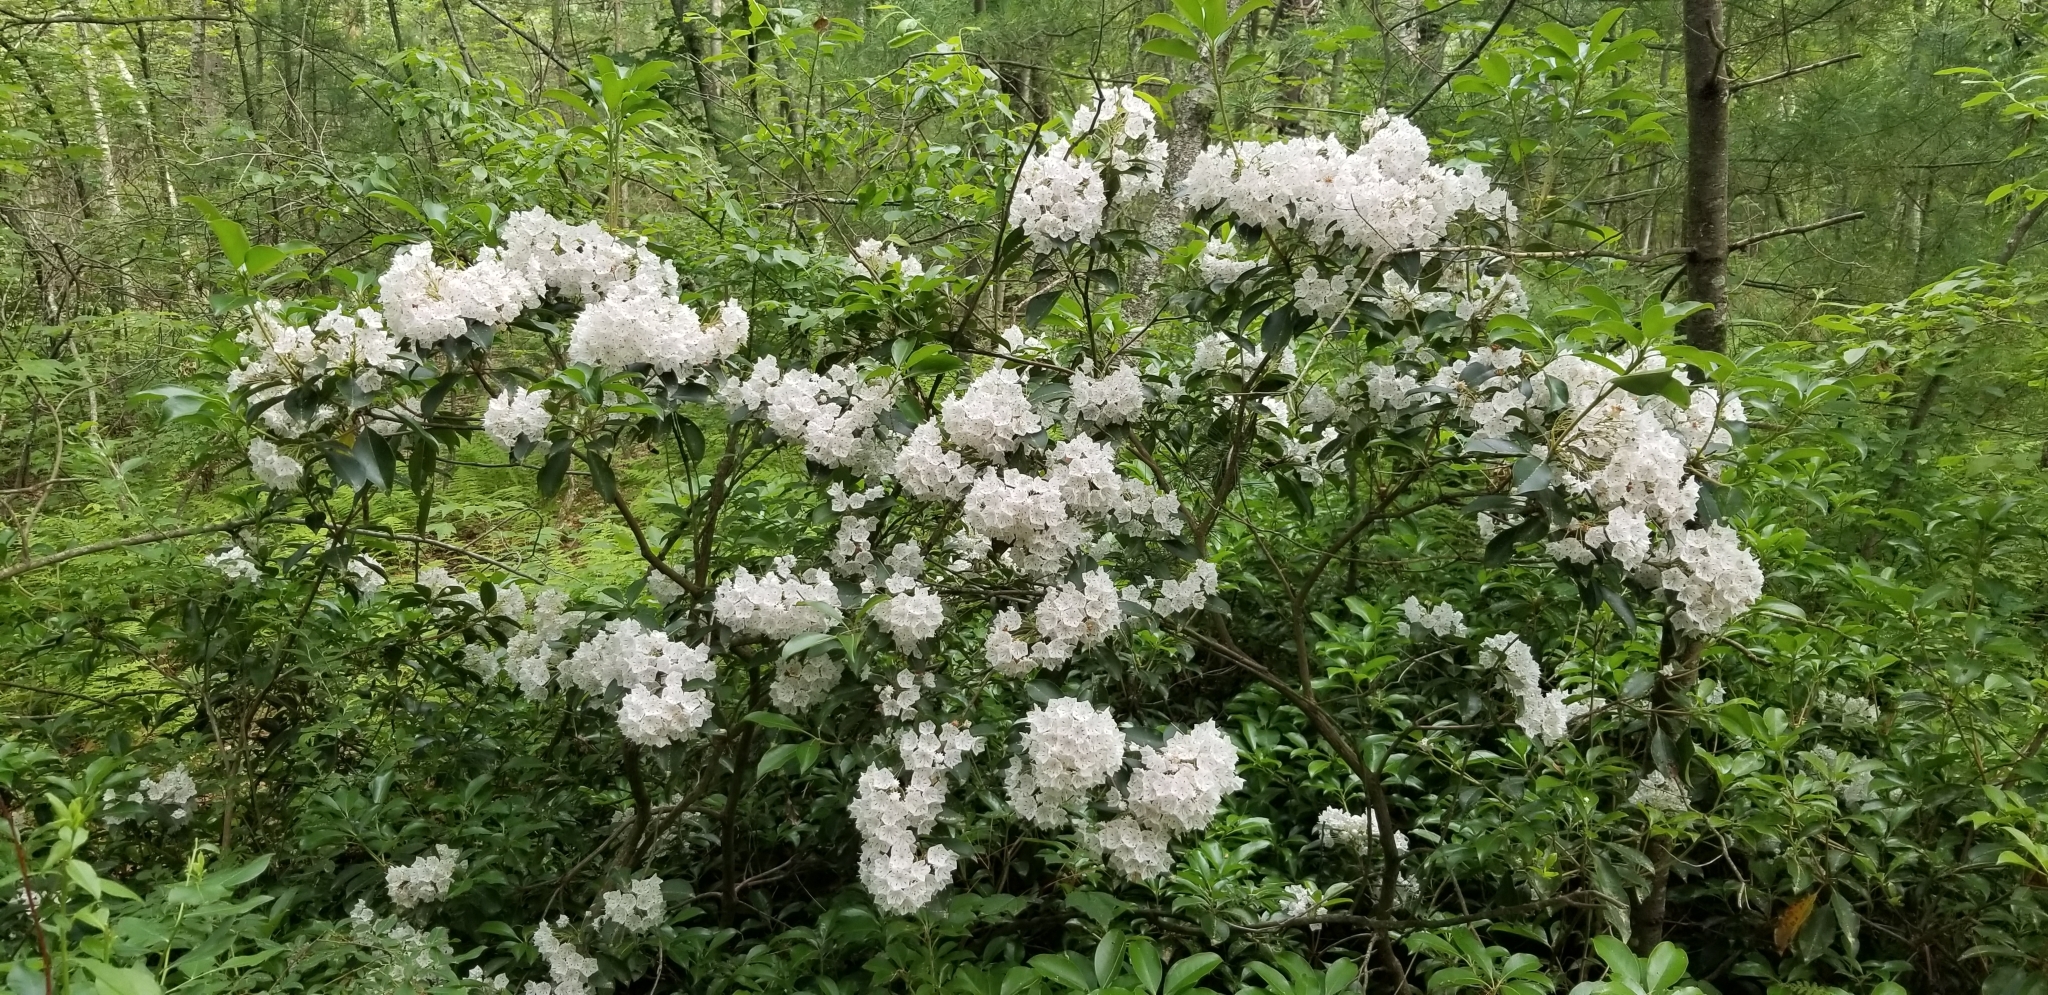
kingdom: Plantae
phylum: Tracheophyta
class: Magnoliopsida
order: Ericales
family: Ericaceae
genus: Kalmia
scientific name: Kalmia latifolia
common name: Mountain-laurel
